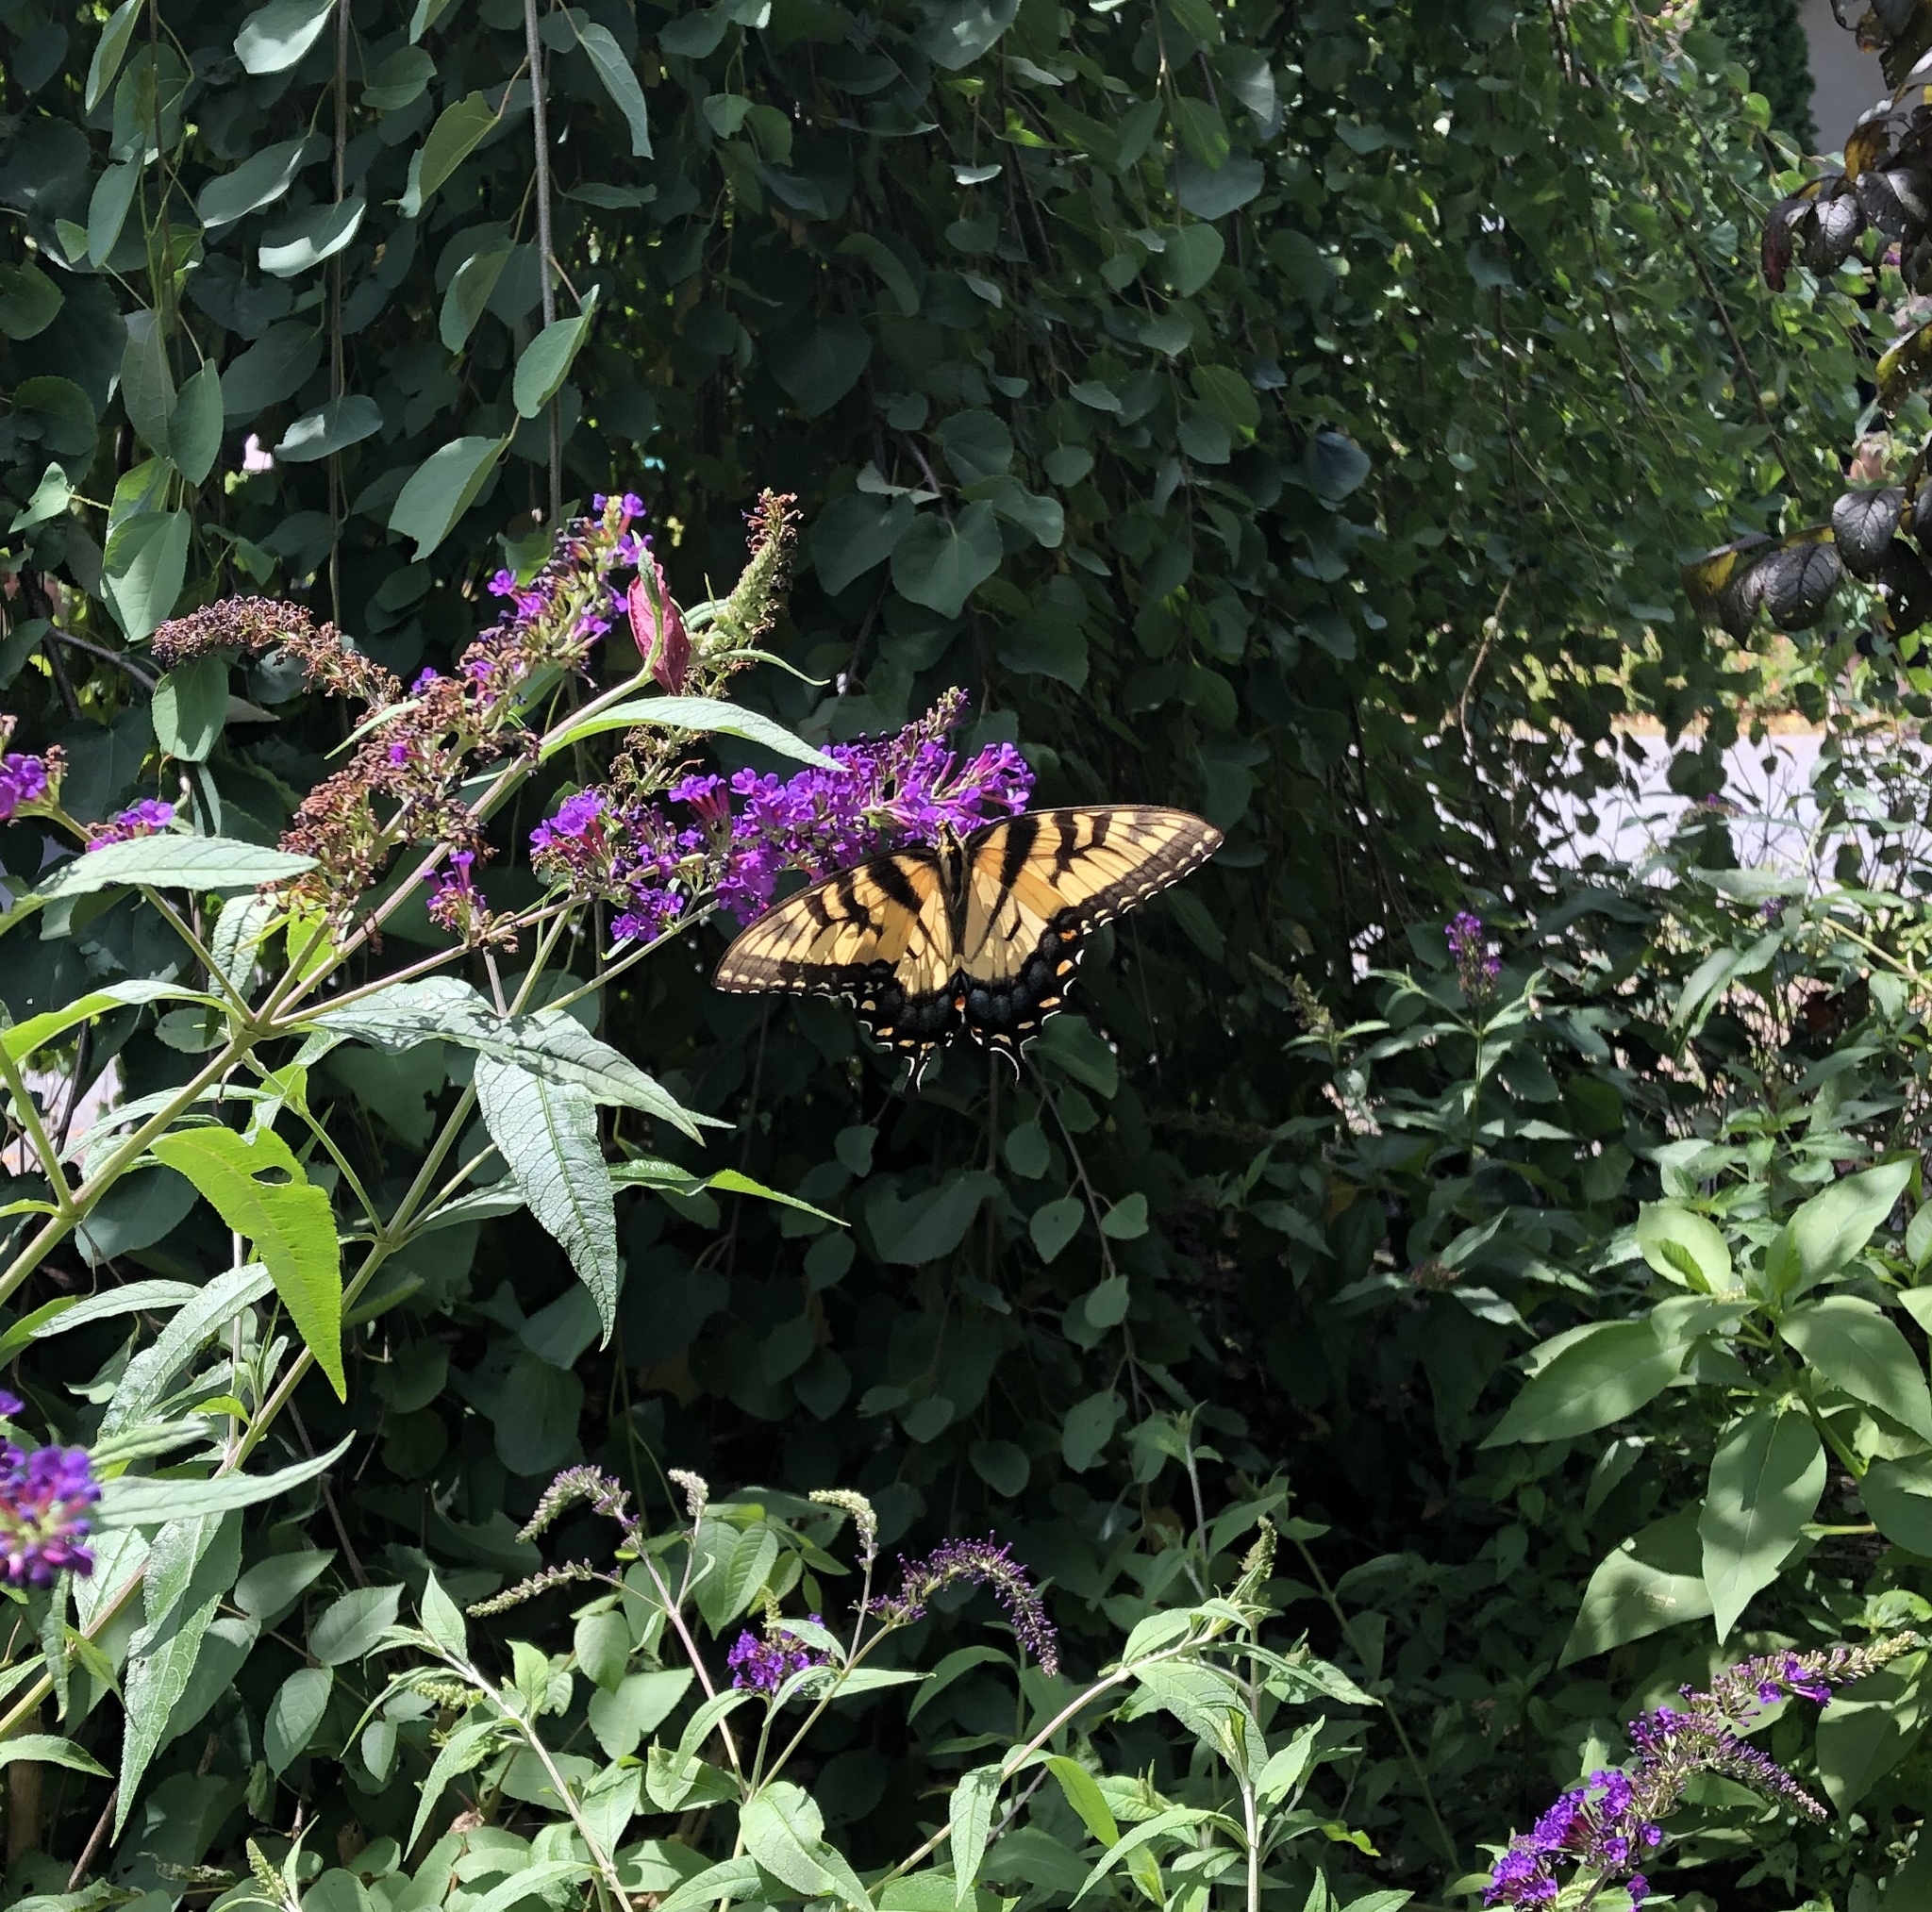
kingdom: Animalia
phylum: Arthropoda
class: Insecta
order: Lepidoptera
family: Papilionidae
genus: Papilio
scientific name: Papilio glaucus
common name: Tiger swallowtail
